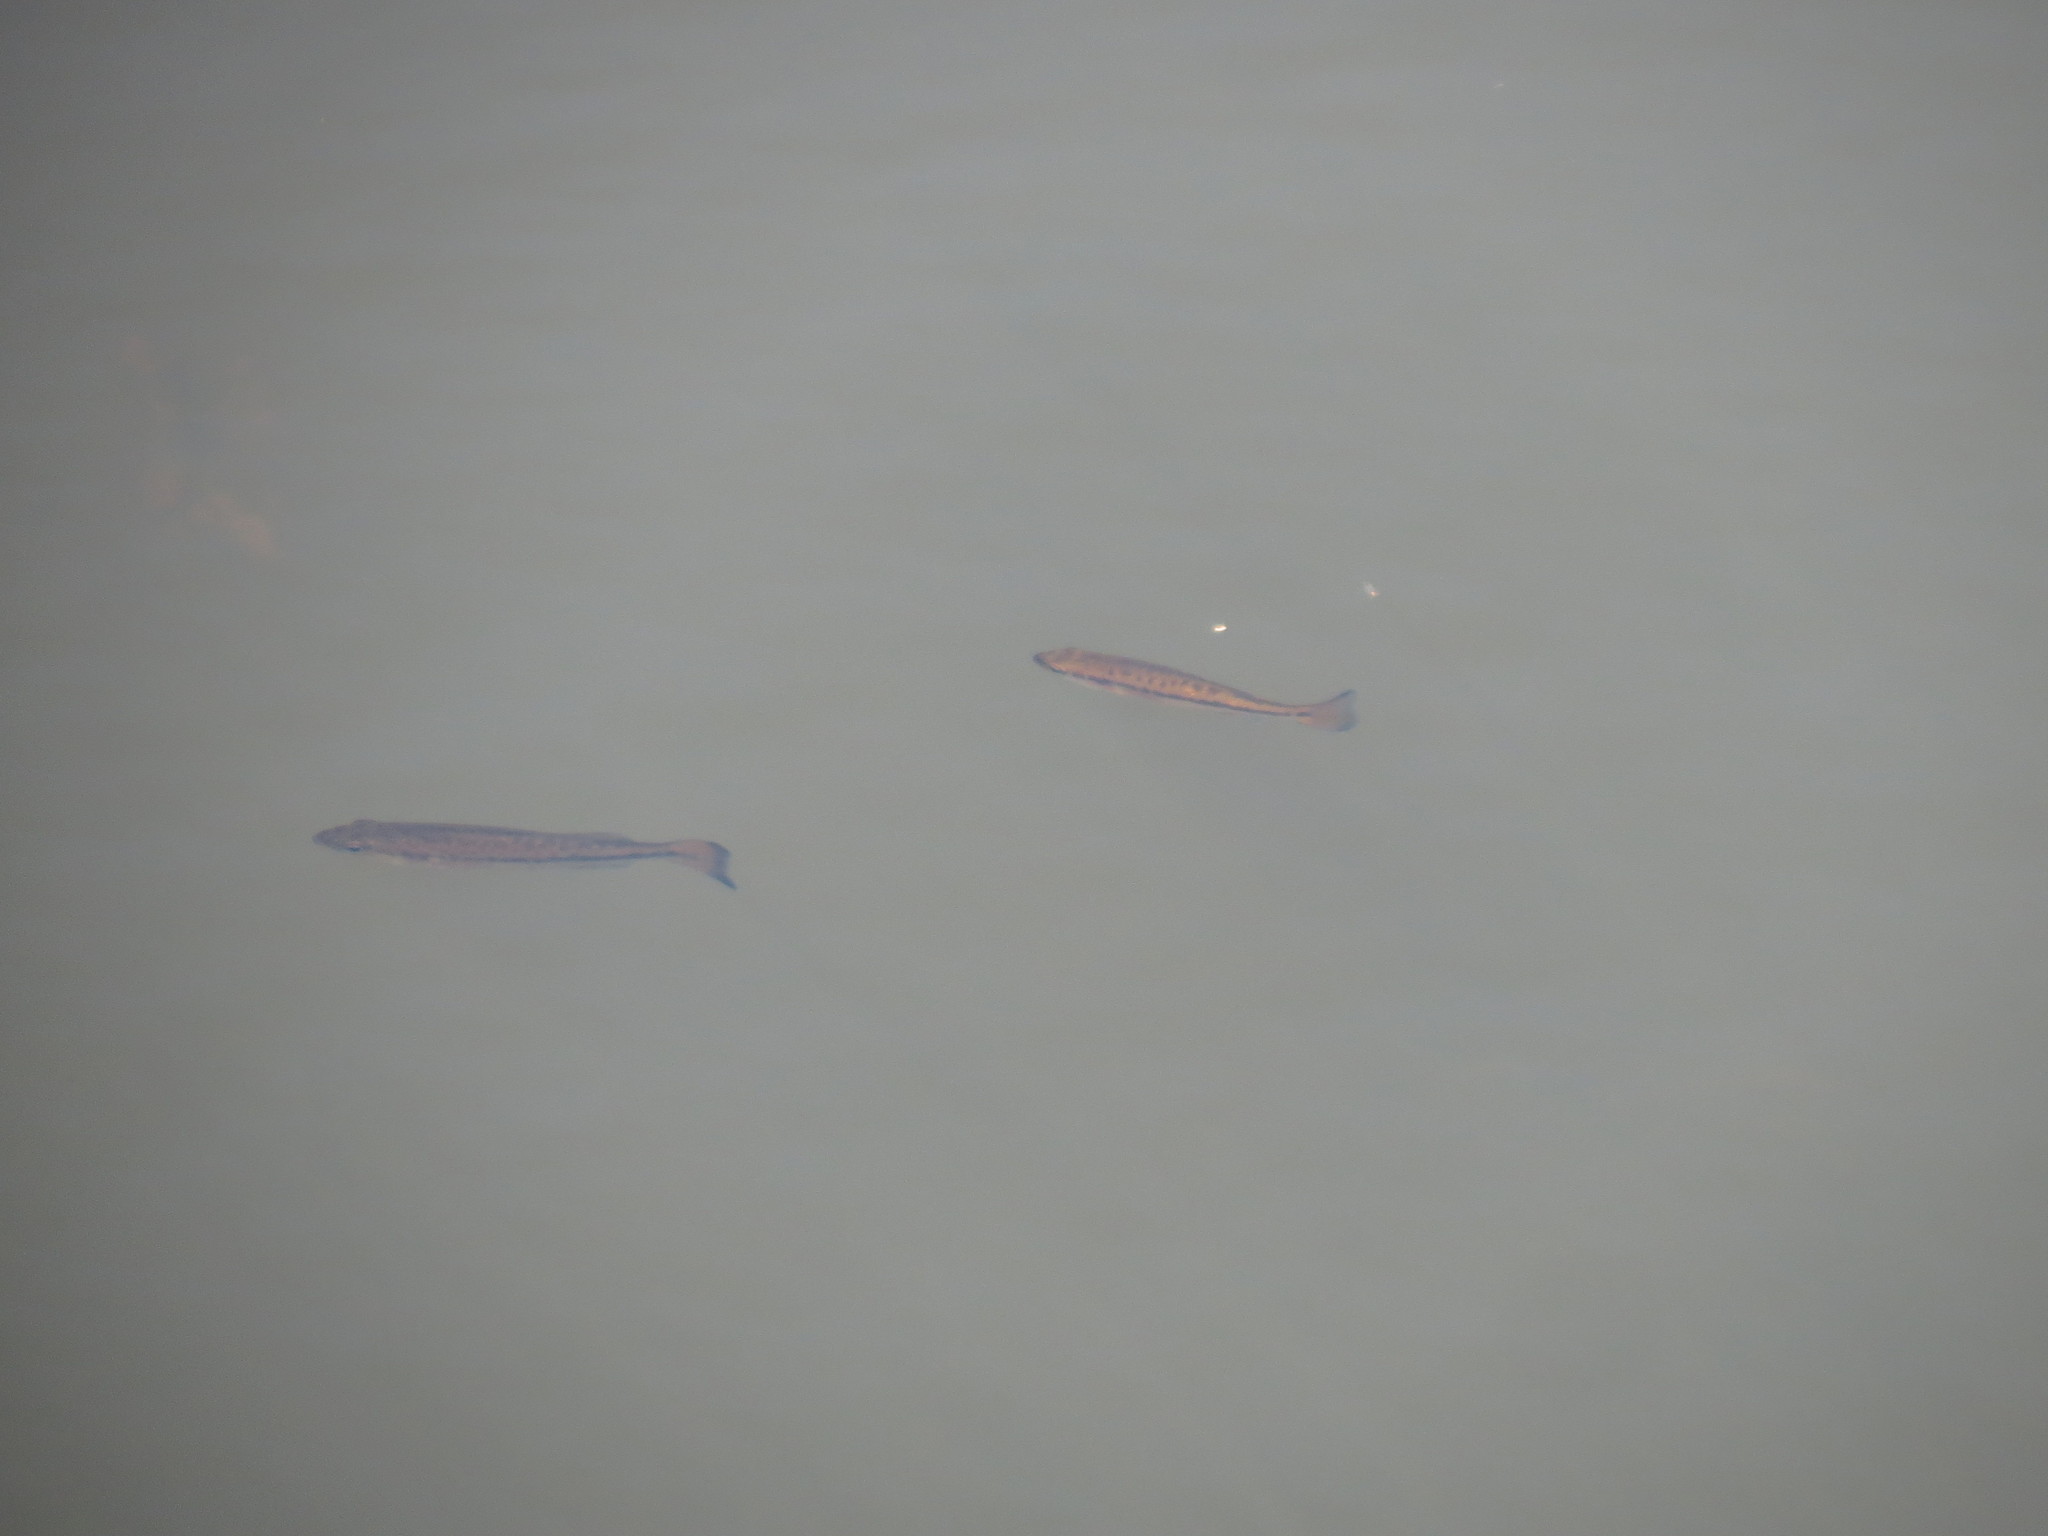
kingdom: Animalia
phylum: Chordata
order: Perciformes
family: Centrarchidae
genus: Micropterus
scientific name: Micropterus
